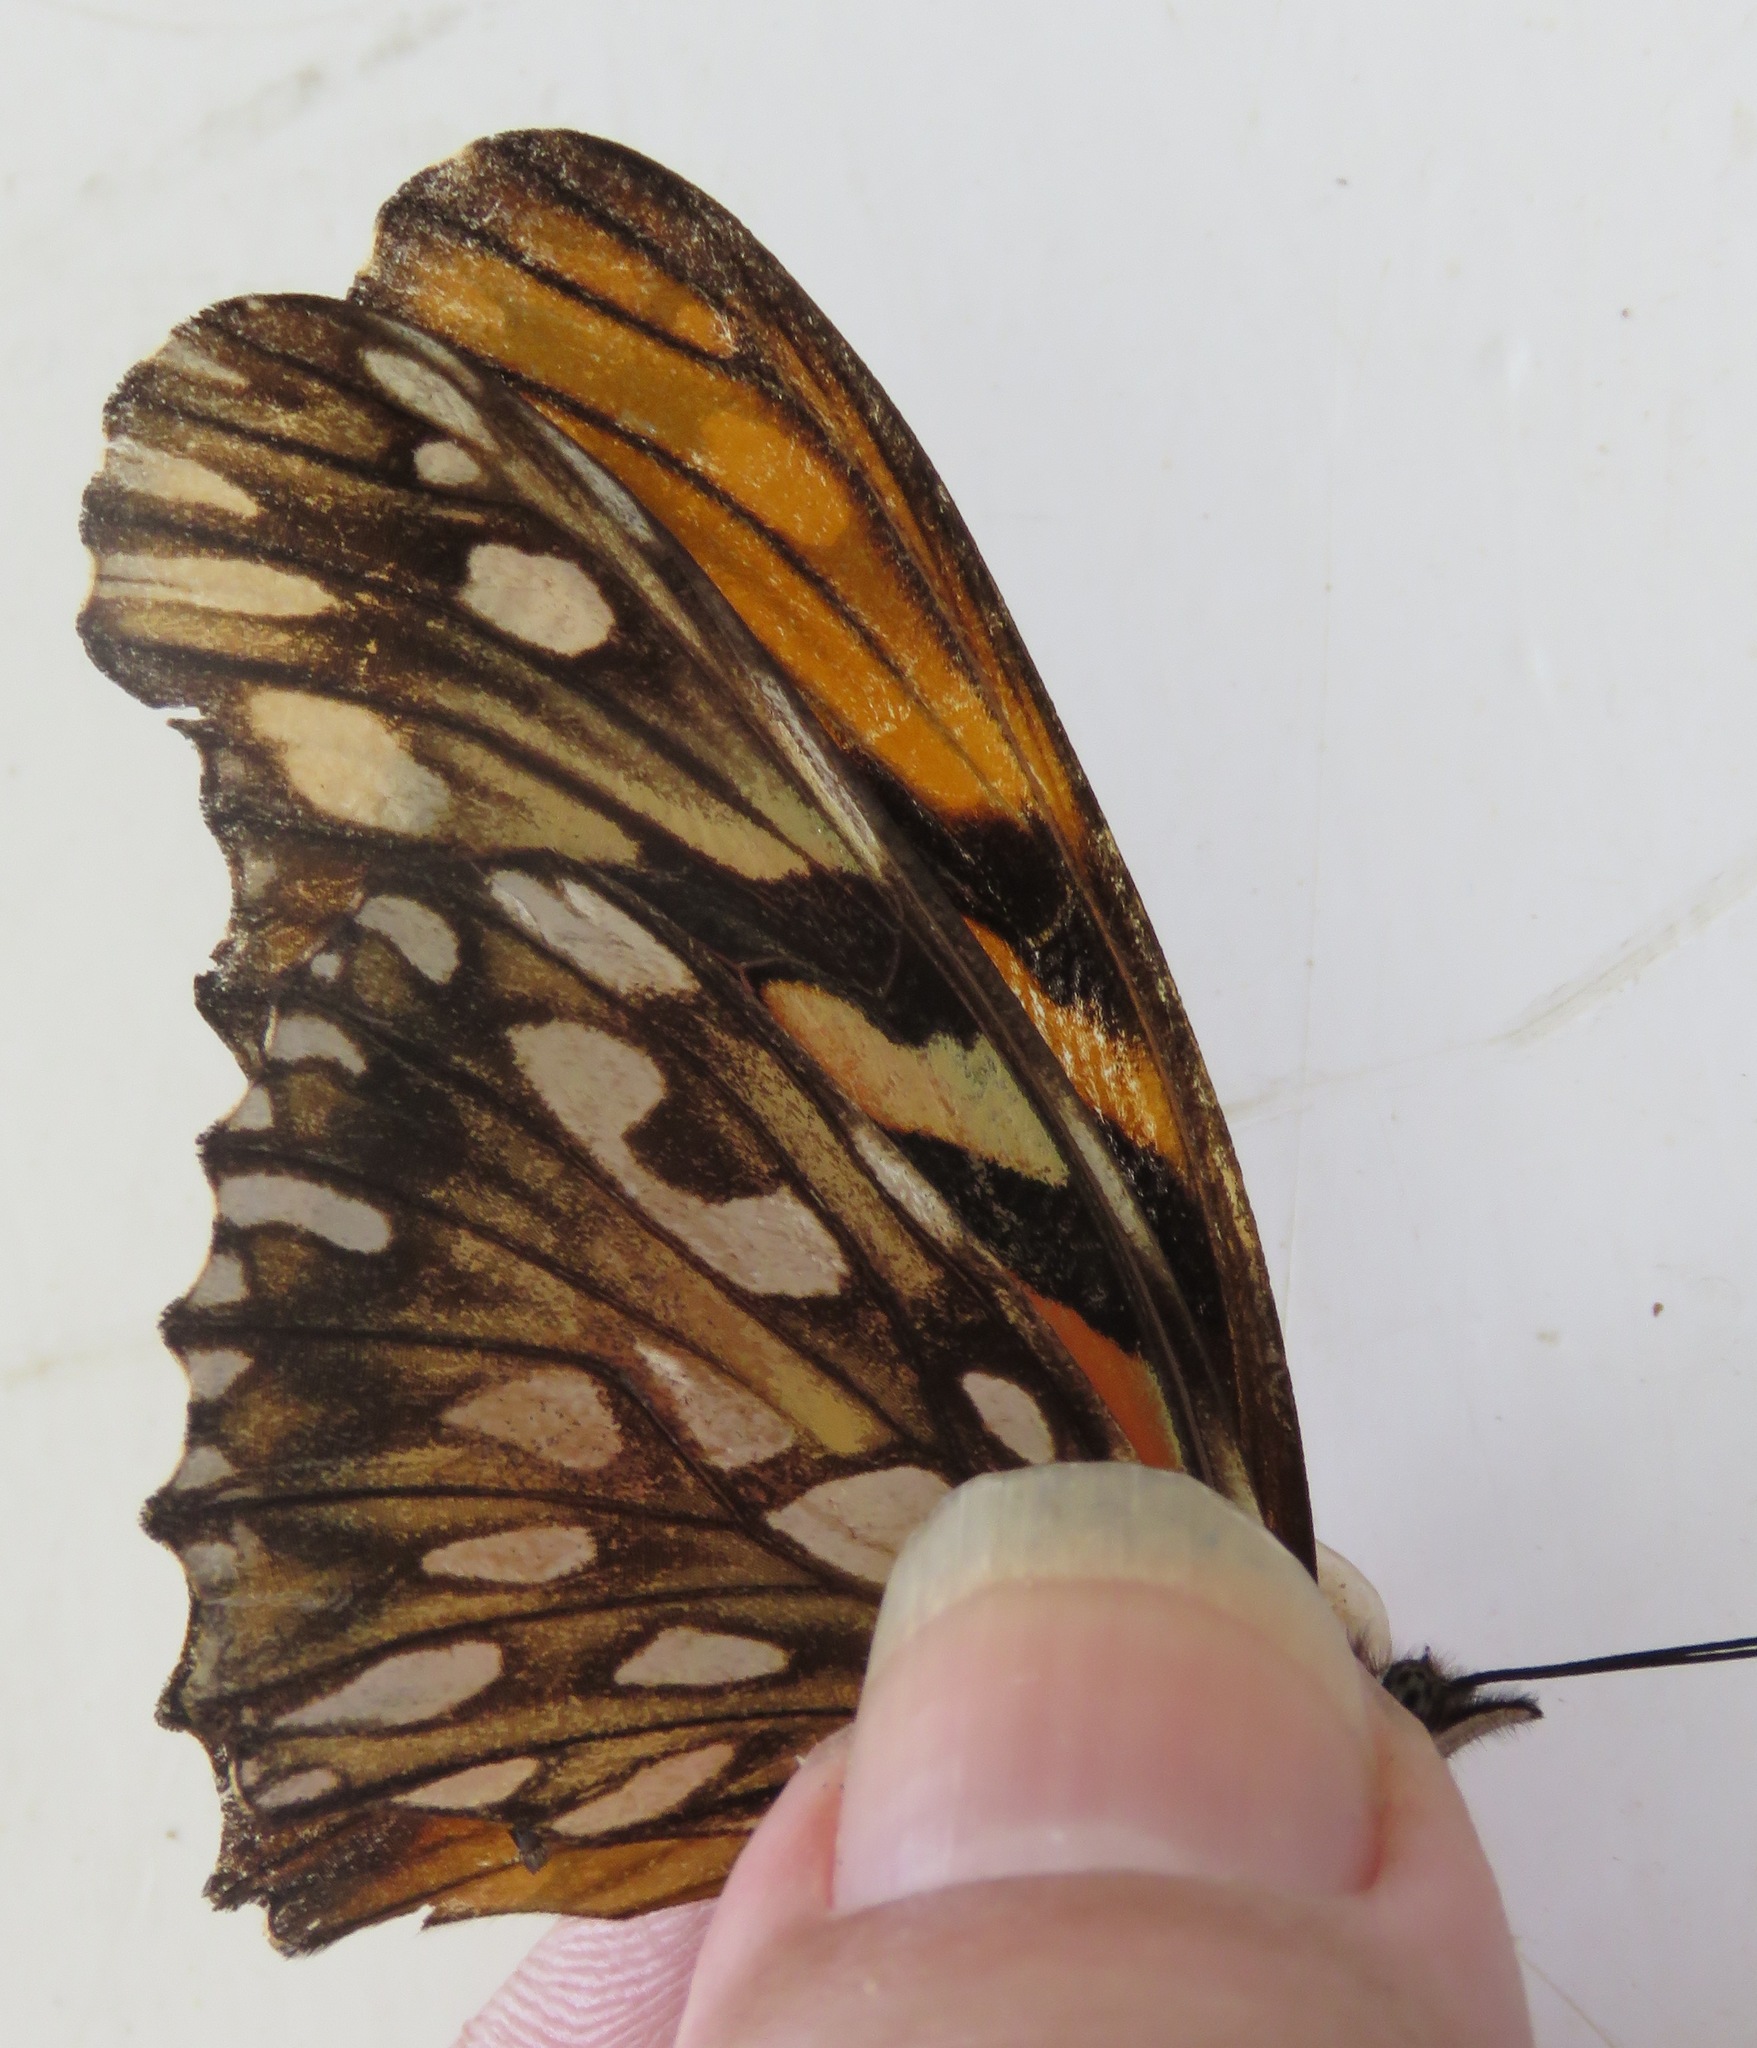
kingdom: Animalia
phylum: Arthropoda
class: Insecta
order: Lepidoptera
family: Nymphalidae
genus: Dione
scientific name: Dione juno
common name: Juno silverspot
